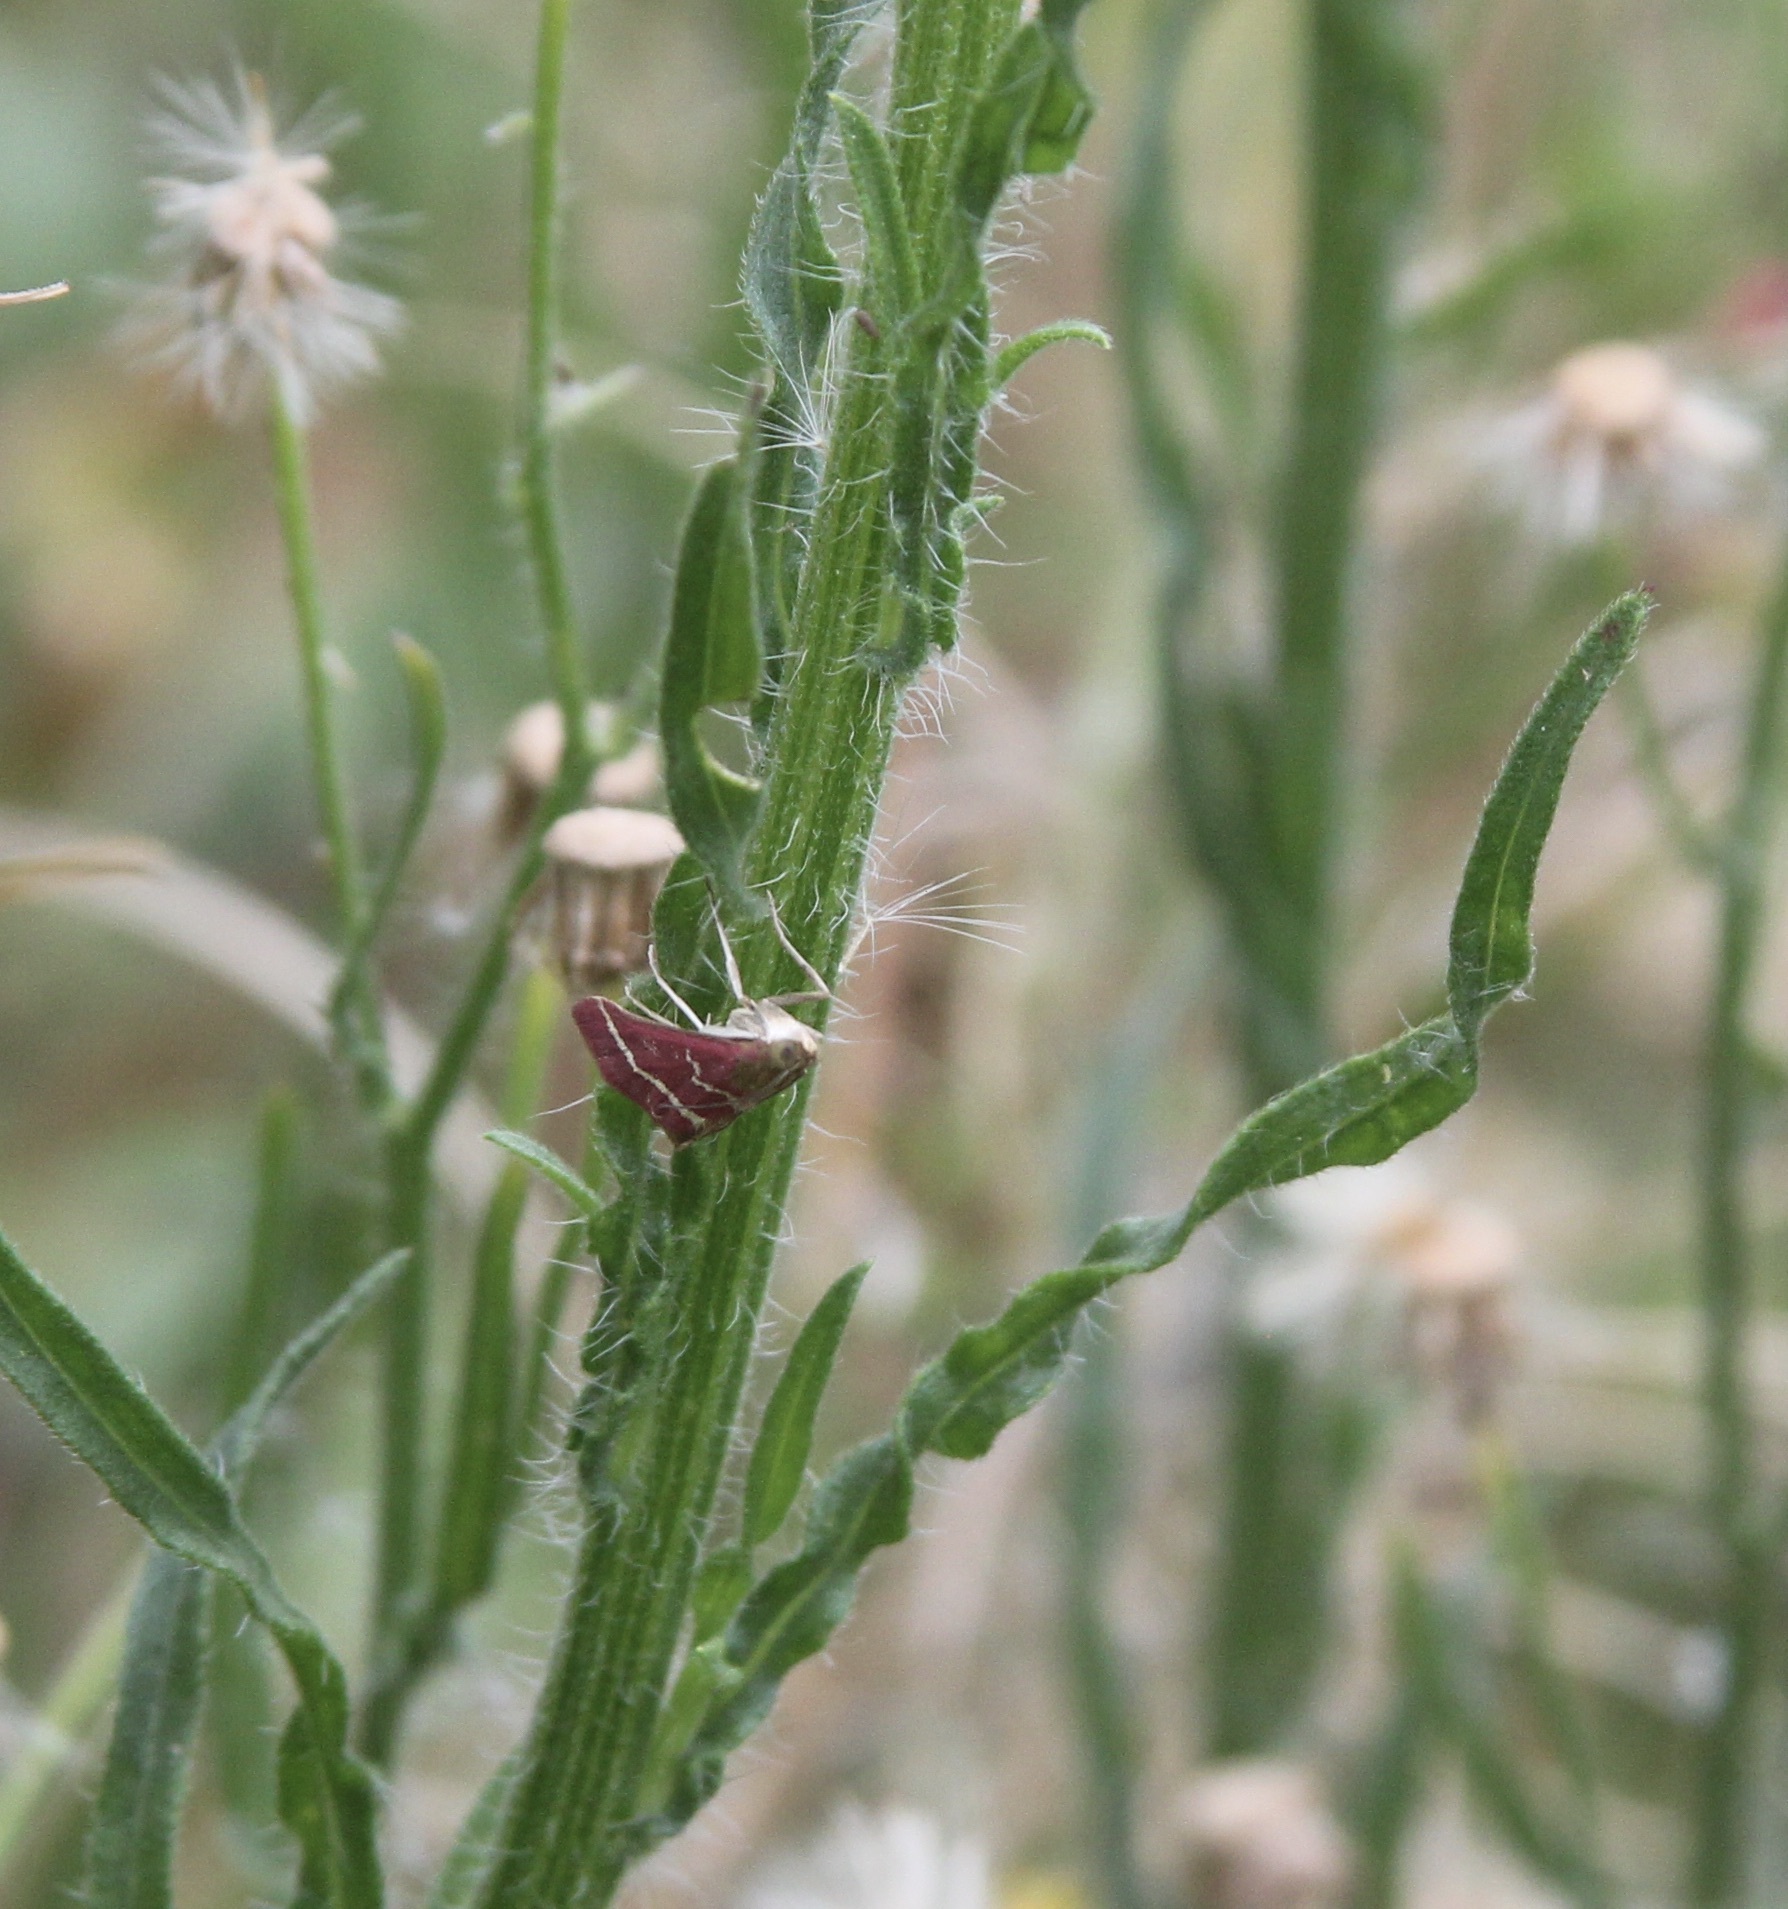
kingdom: Animalia
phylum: Arthropoda
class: Insecta
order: Lepidoptera
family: Crambidae
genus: Pyrausta
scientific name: Pyrausta volupialis
